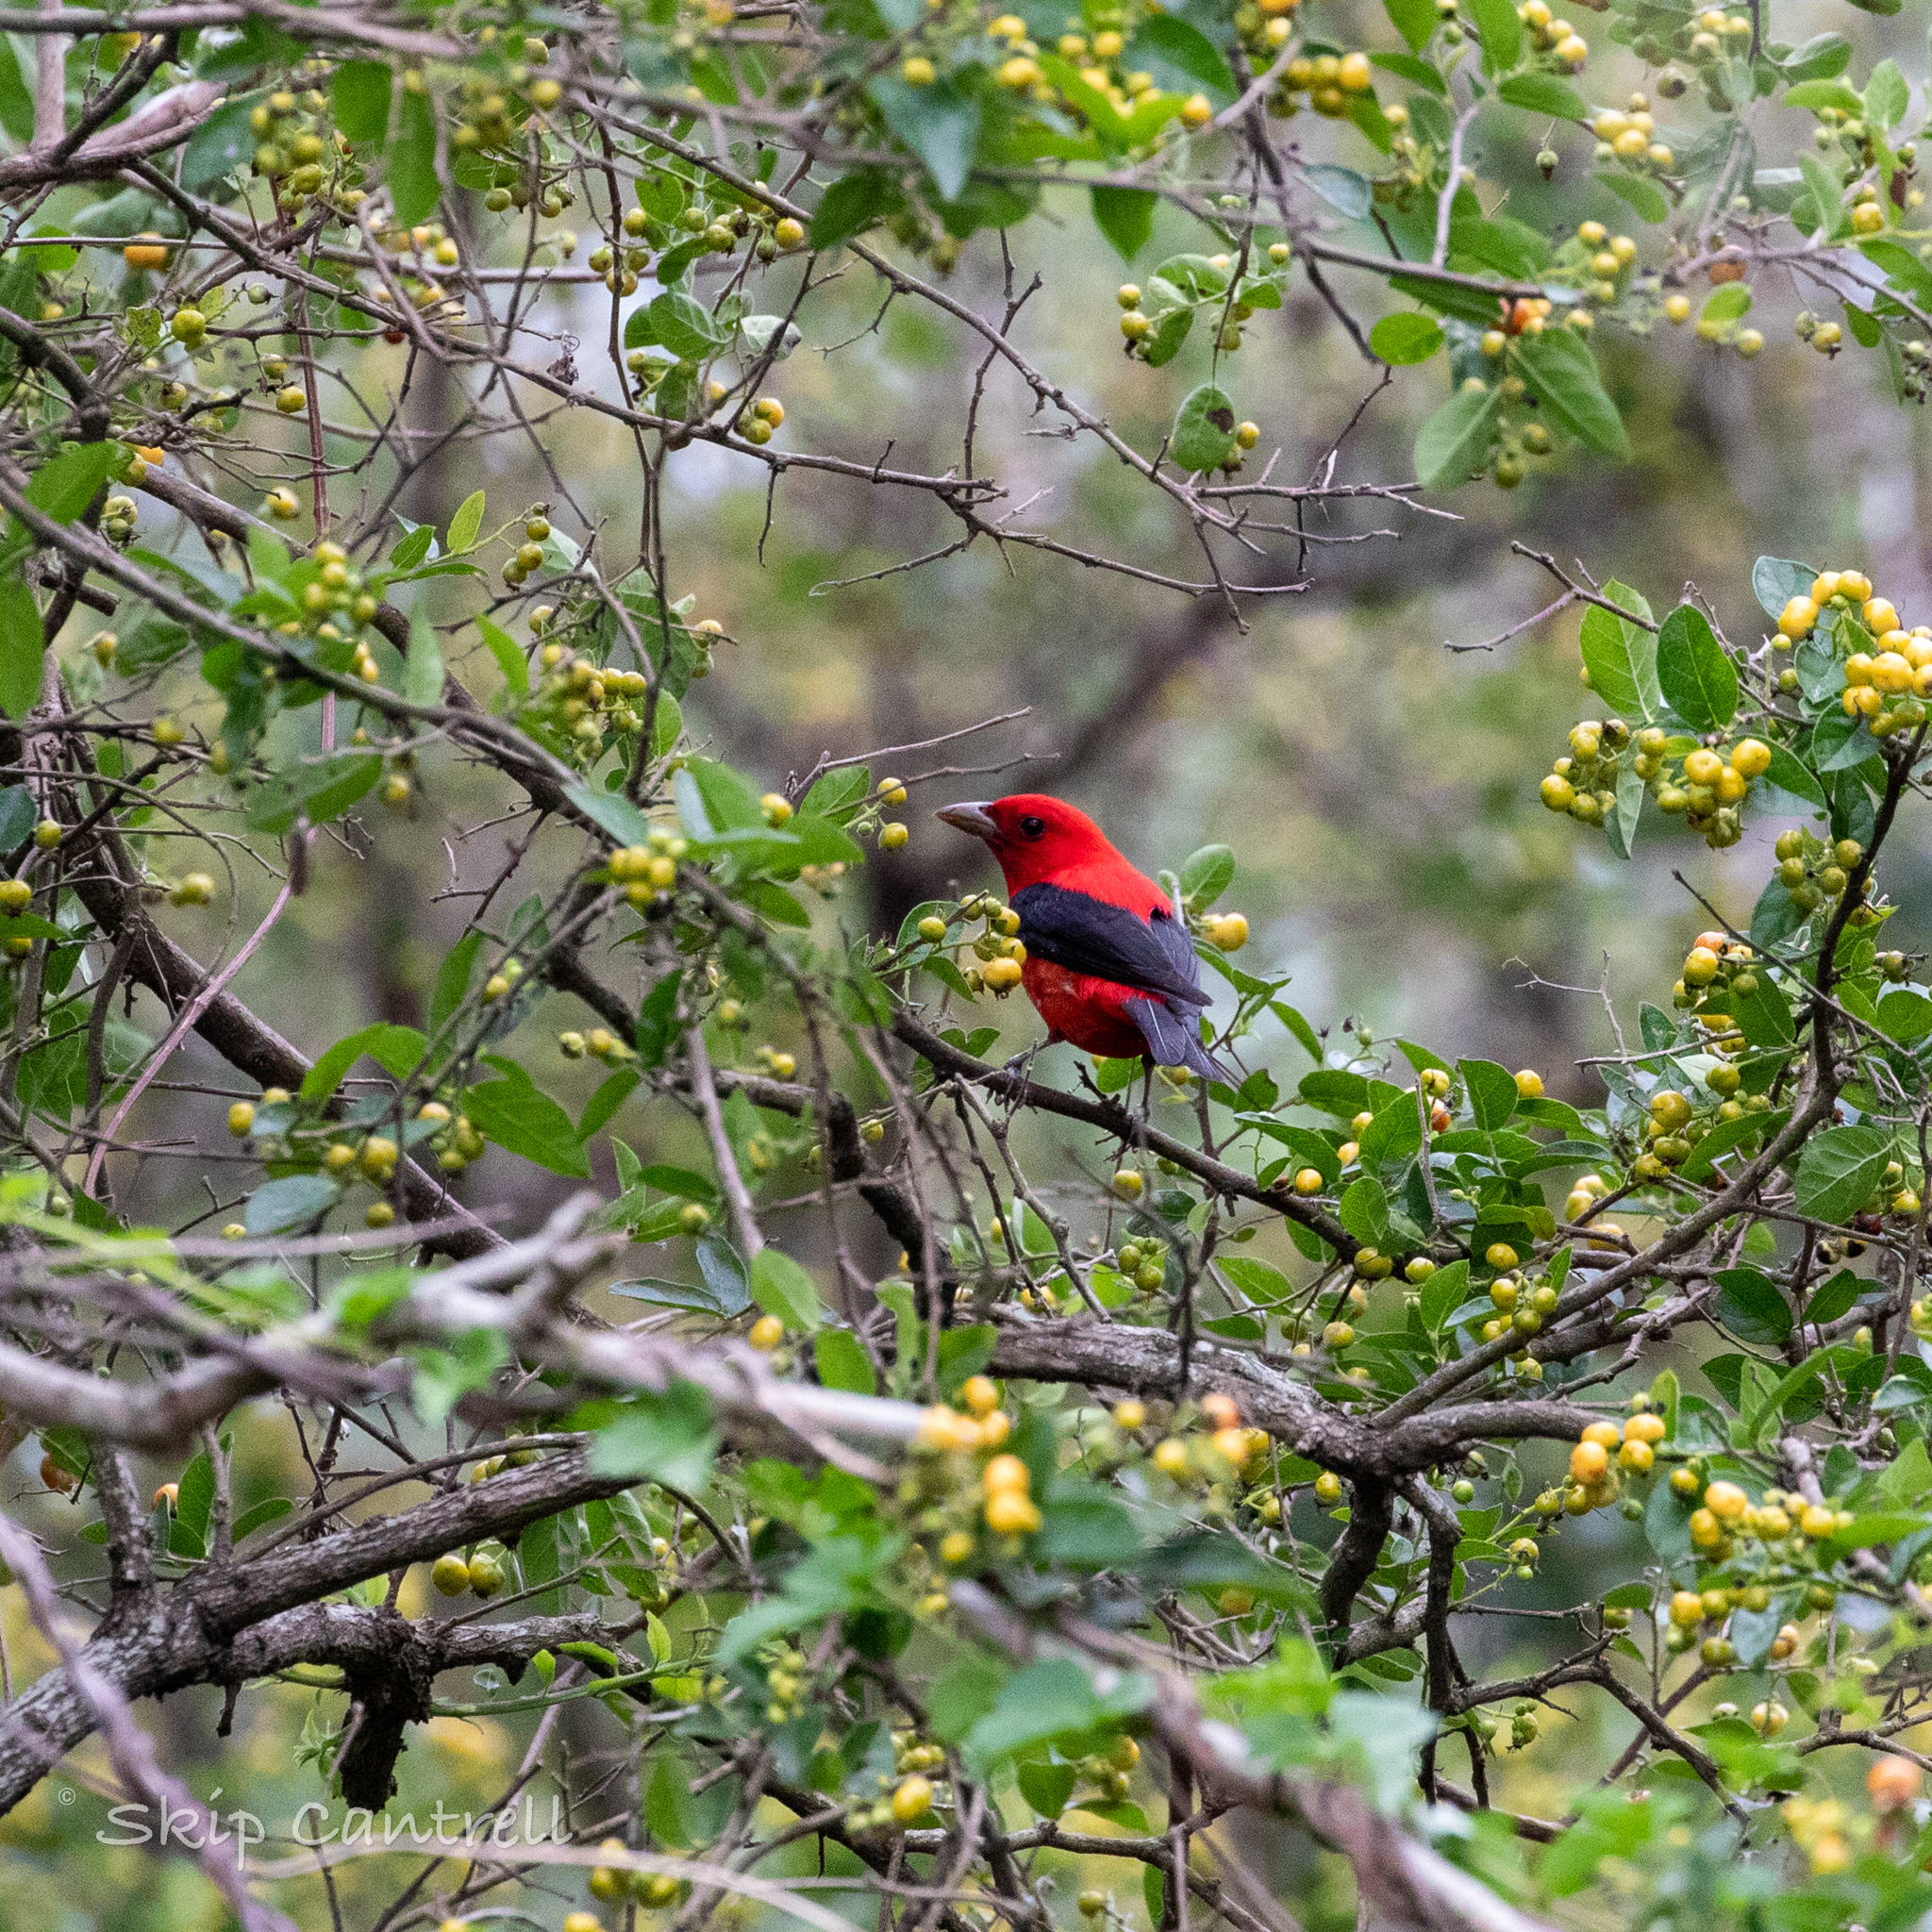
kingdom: Animalia
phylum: Chordata
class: Aves
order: Passeriformes
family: Cardinalidae
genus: Piranga
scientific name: Piranga olivacea
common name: Scarlet tanager
